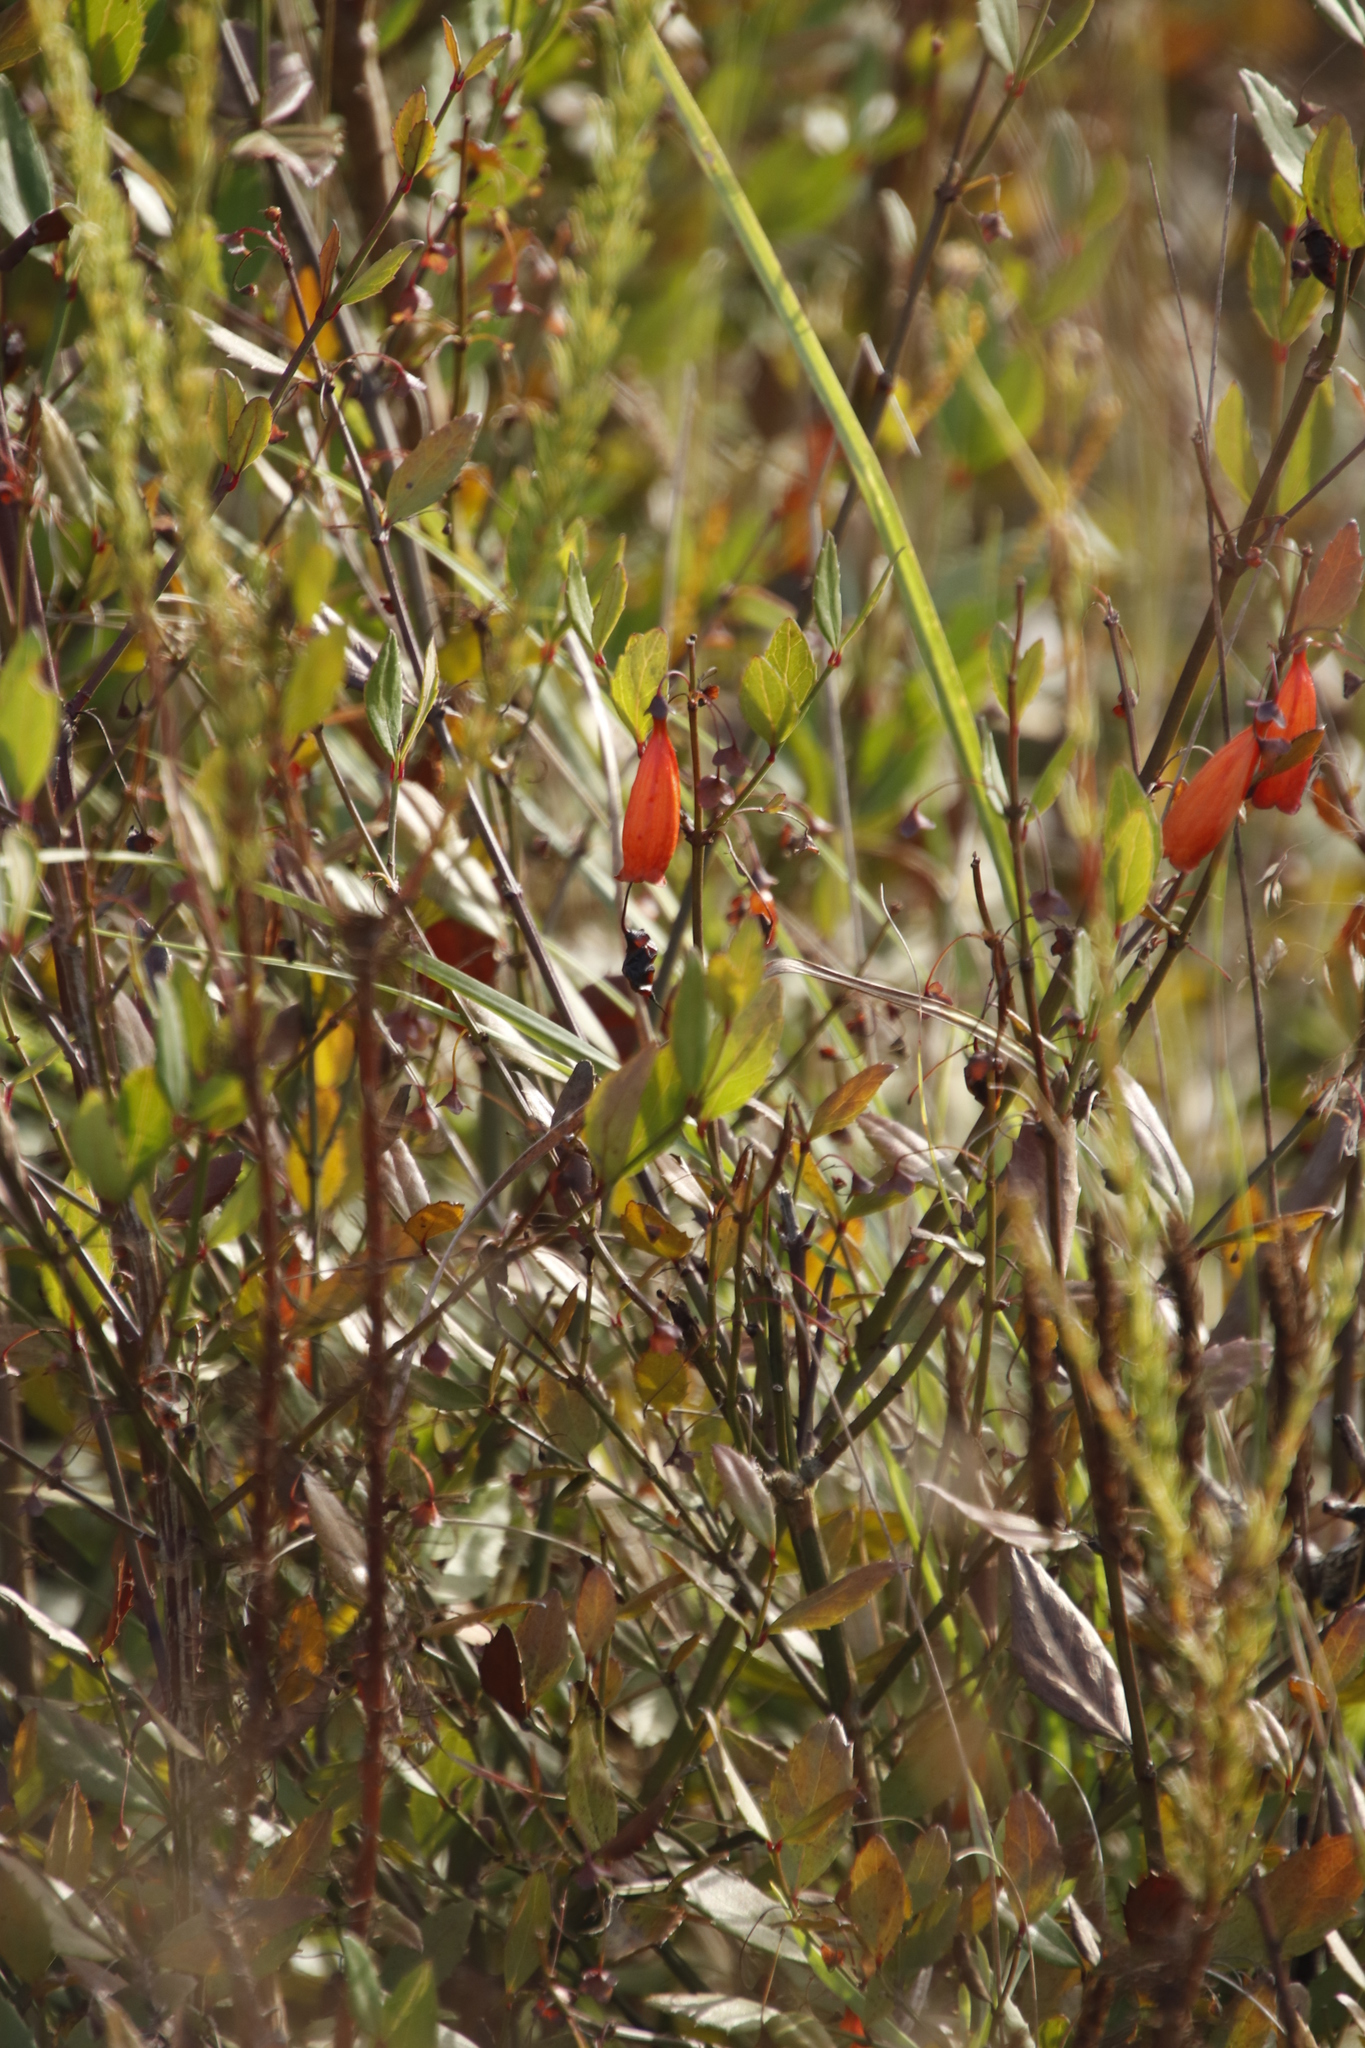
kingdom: Plantae
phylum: Tracheophyta
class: Magnoliopsida
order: Lamiales
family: Stilbaceae
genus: Halleria
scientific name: Halleria elliptica
